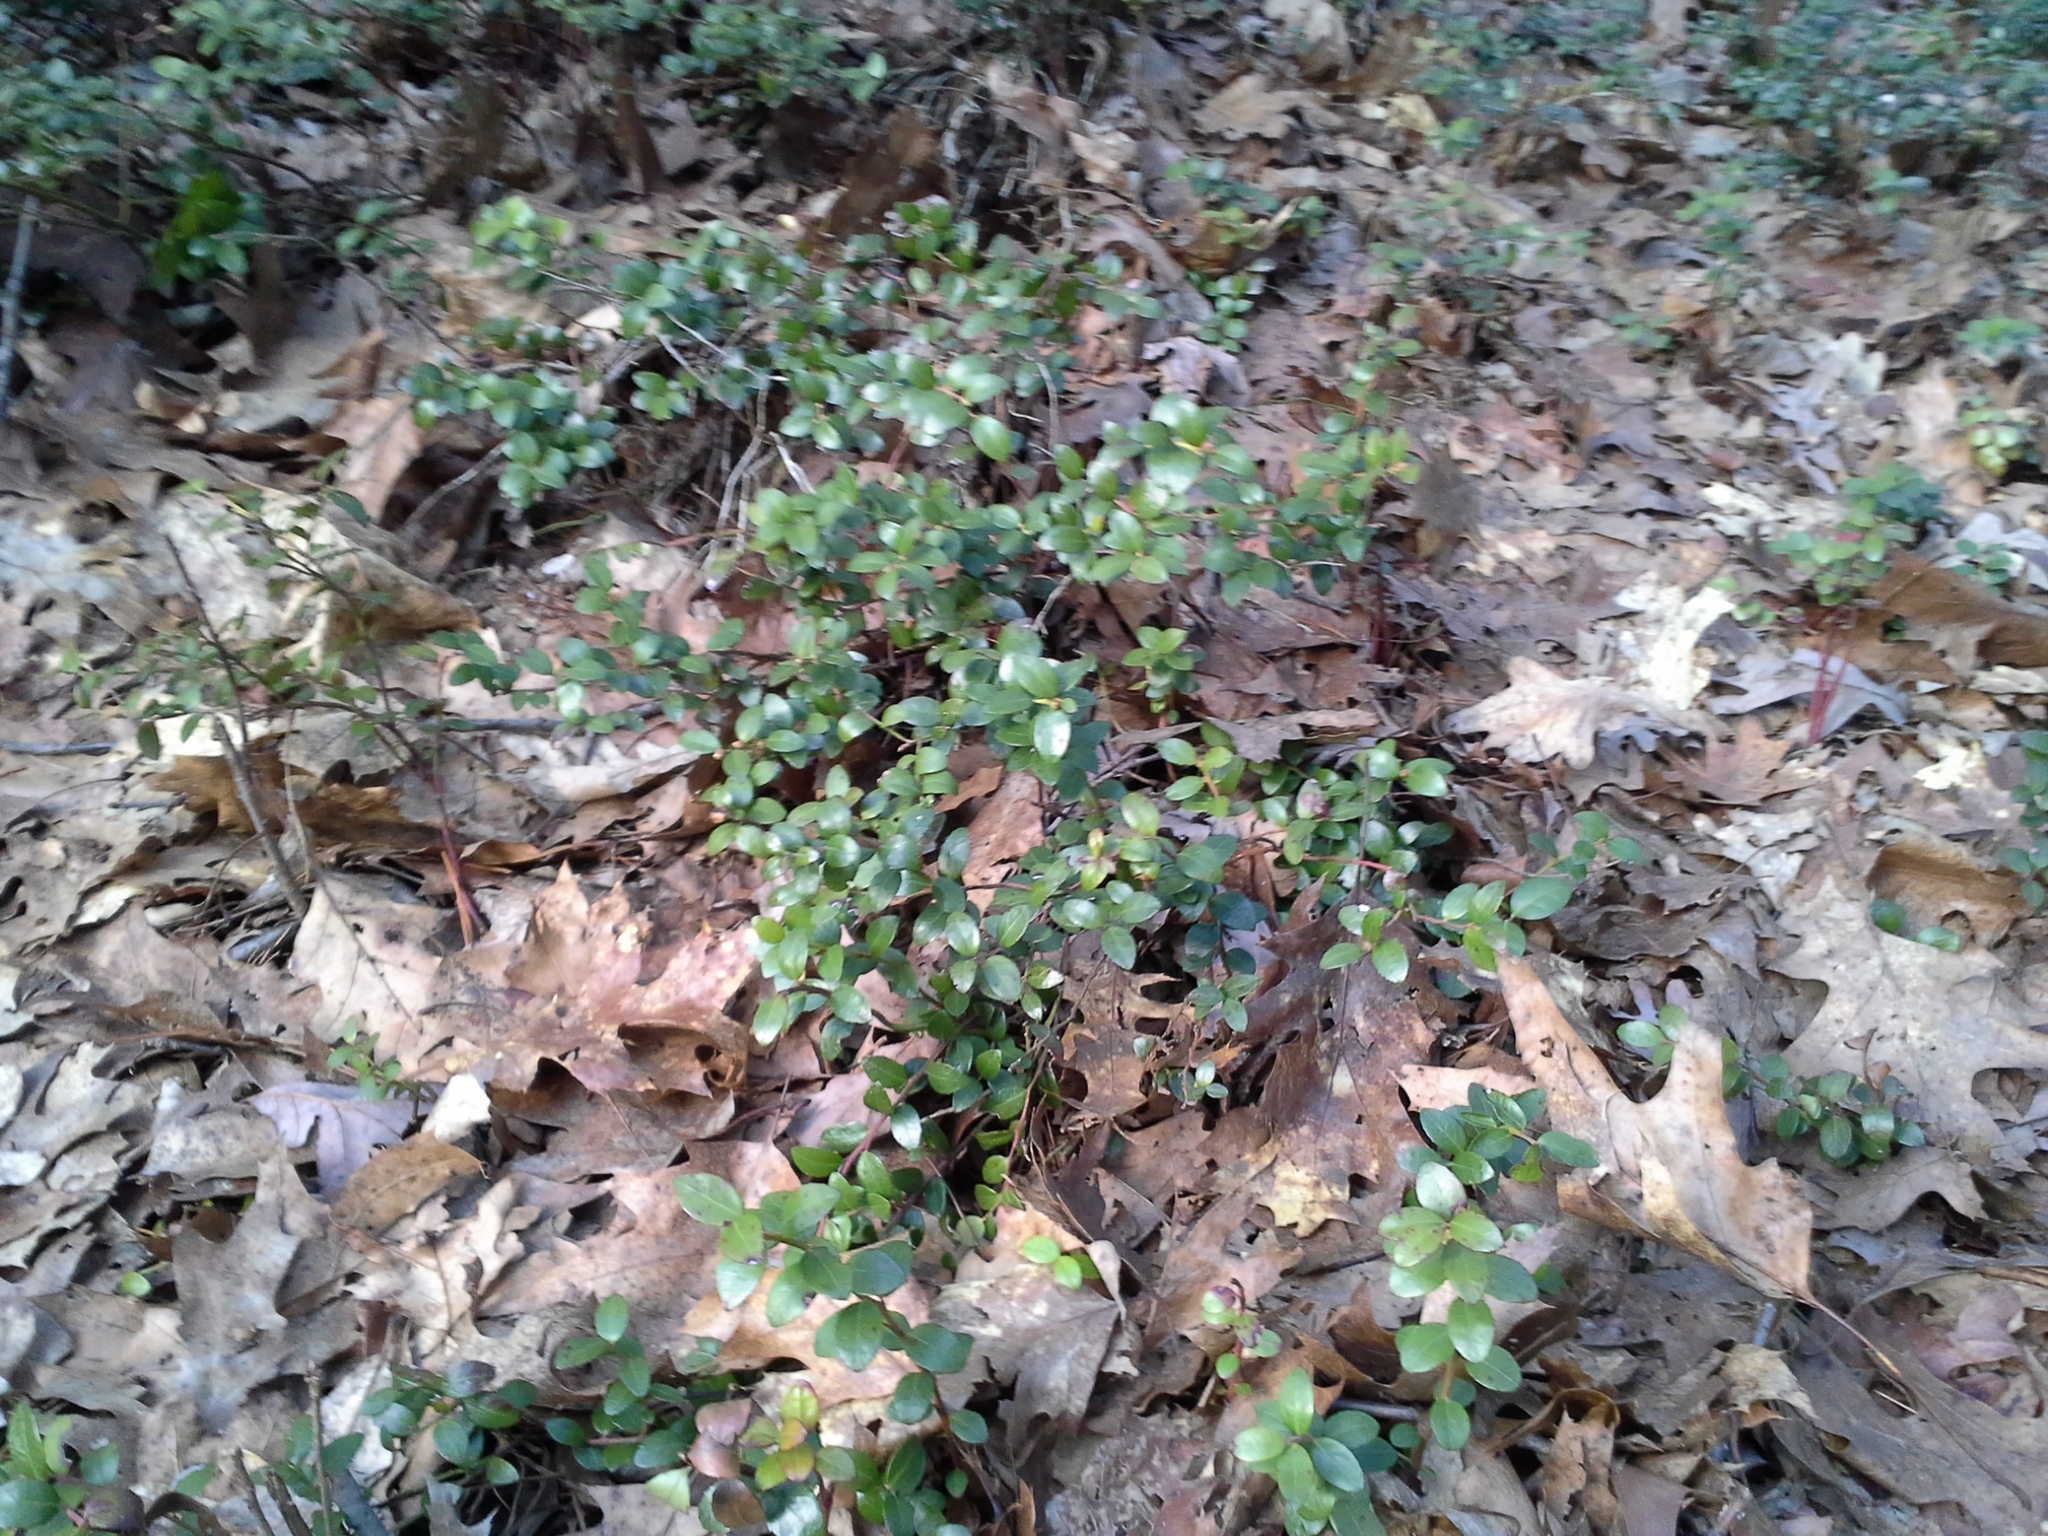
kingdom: Plantae
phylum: Tracheophyta
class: Magnoliopsida
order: Ericales
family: Ericaceae
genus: Gaylussacia
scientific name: Gaylussacia brachycera
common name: Box huckleberry
